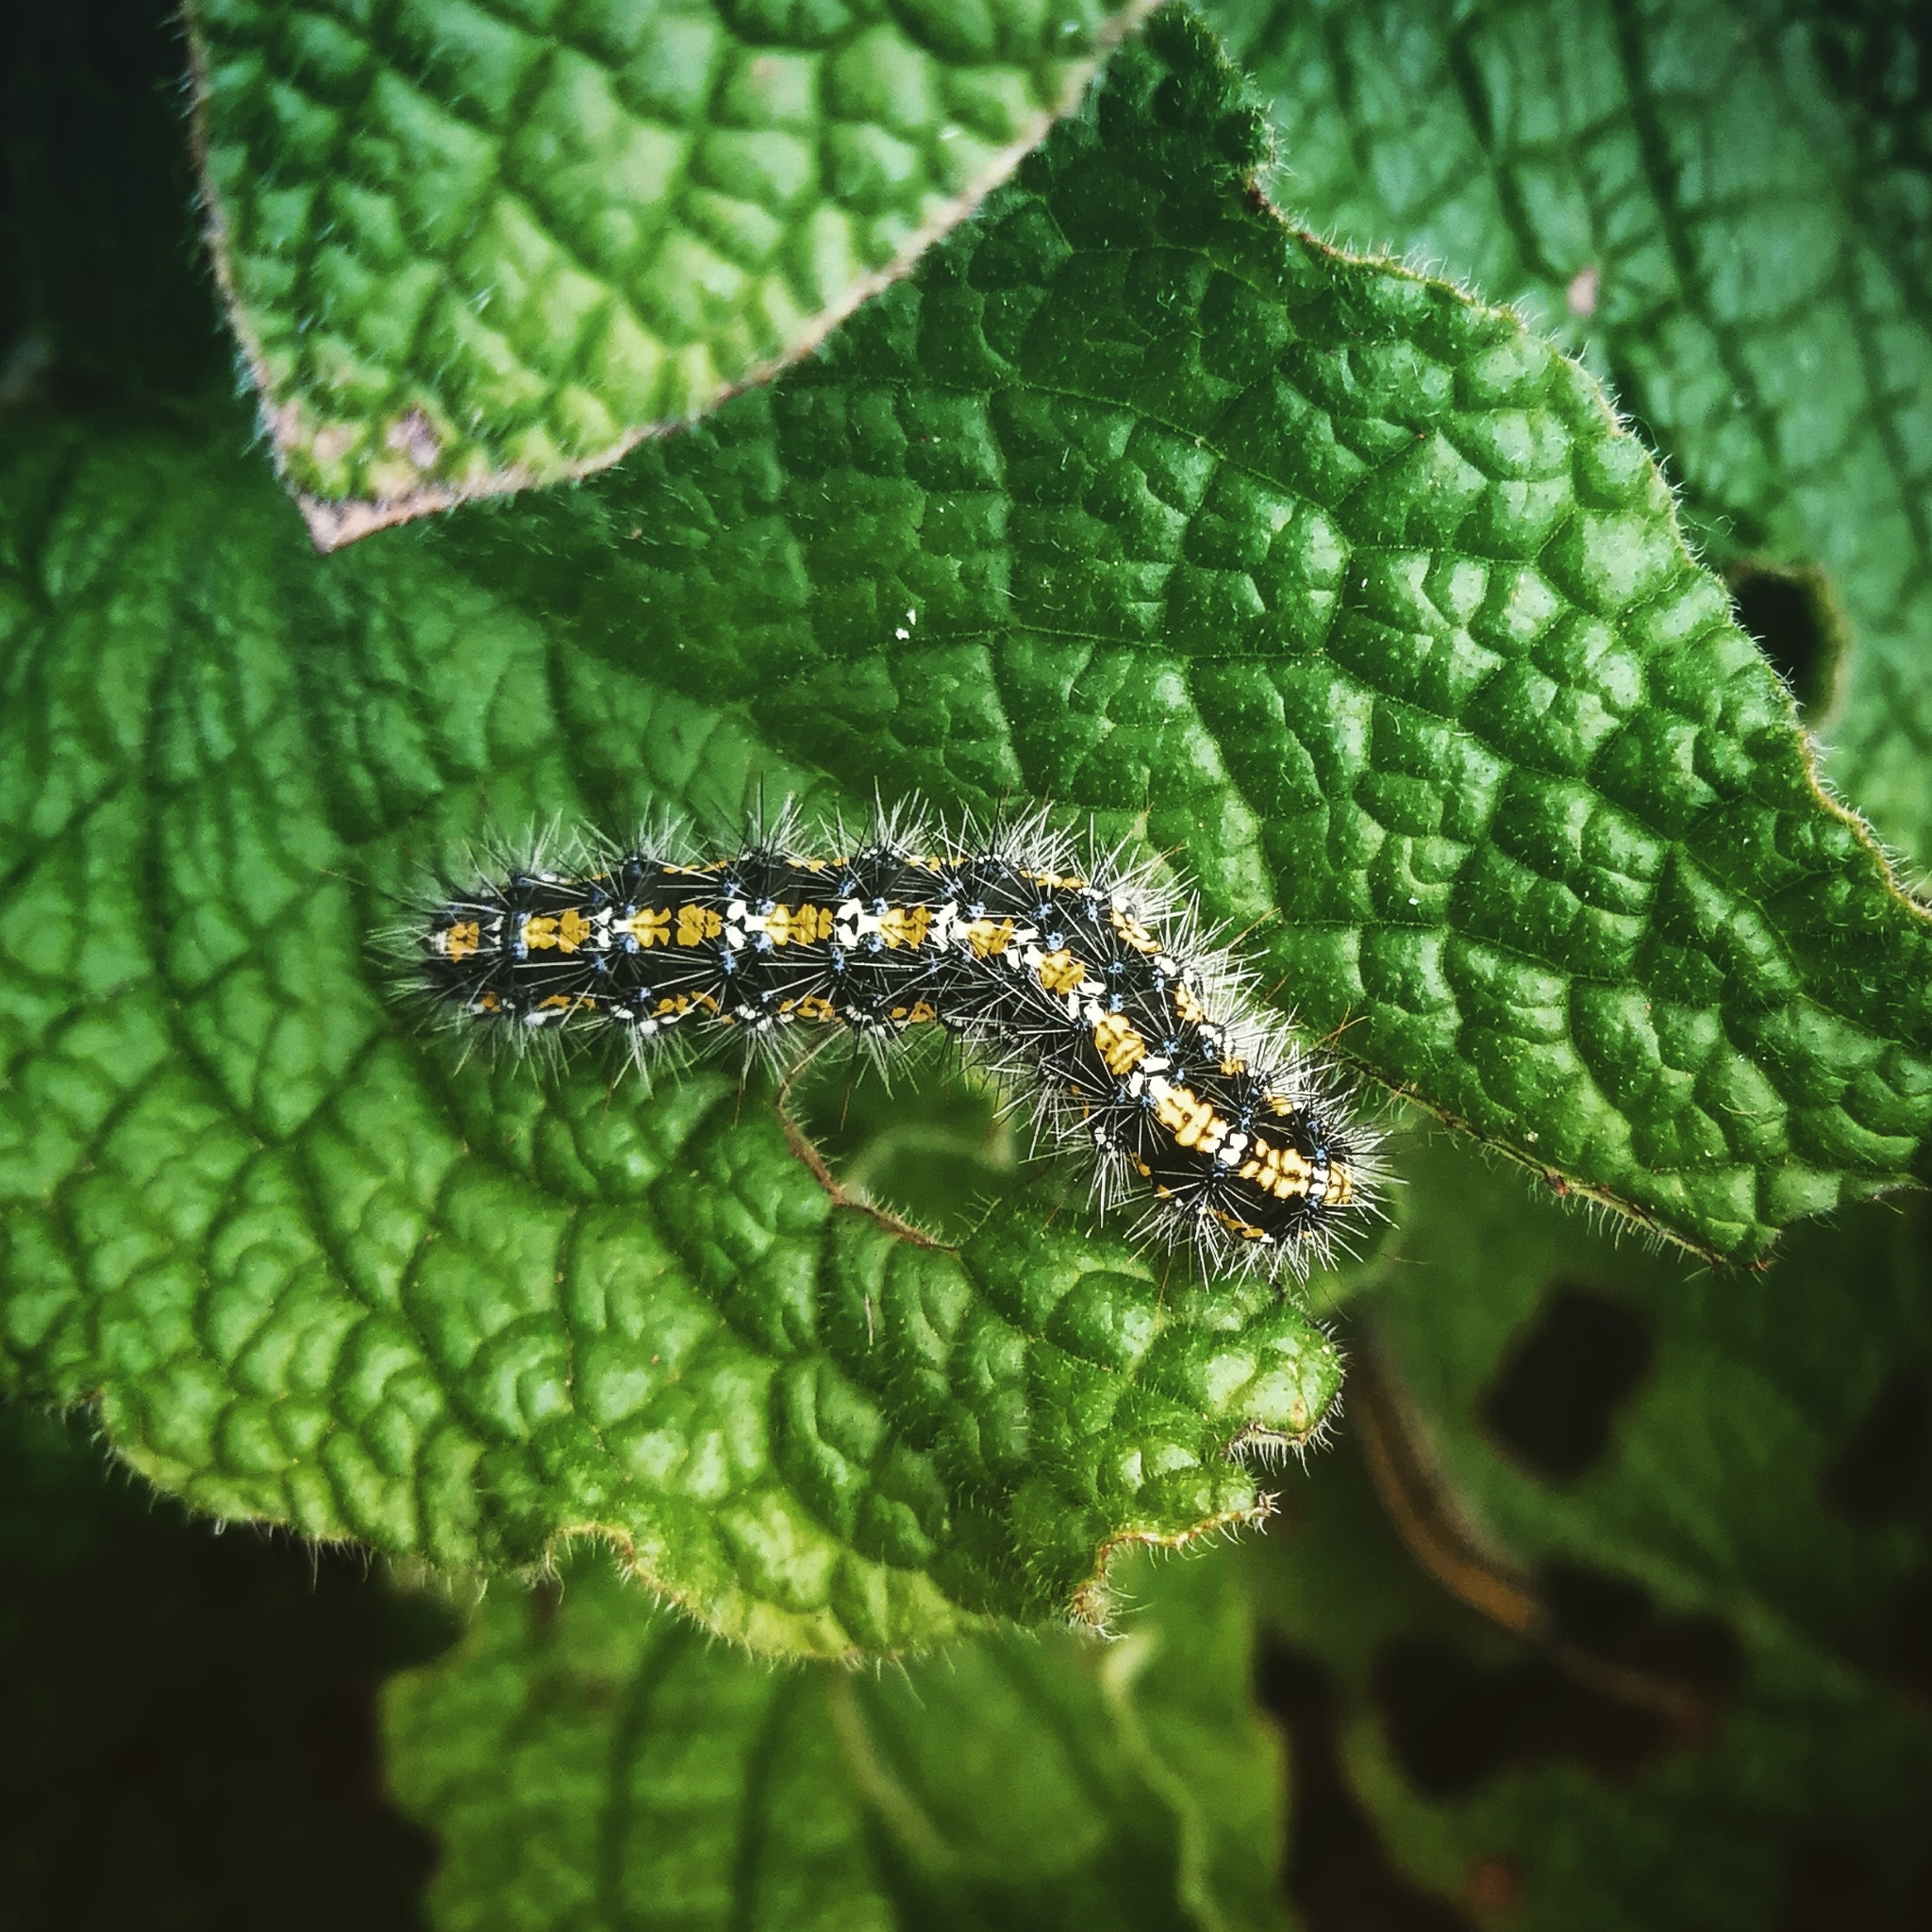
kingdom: Animalia
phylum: Arthropoda
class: Insecta
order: Lepidoptera
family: Erebidae
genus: Callimorpha
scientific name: Callimorpha dominula
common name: Scarlet tiger
